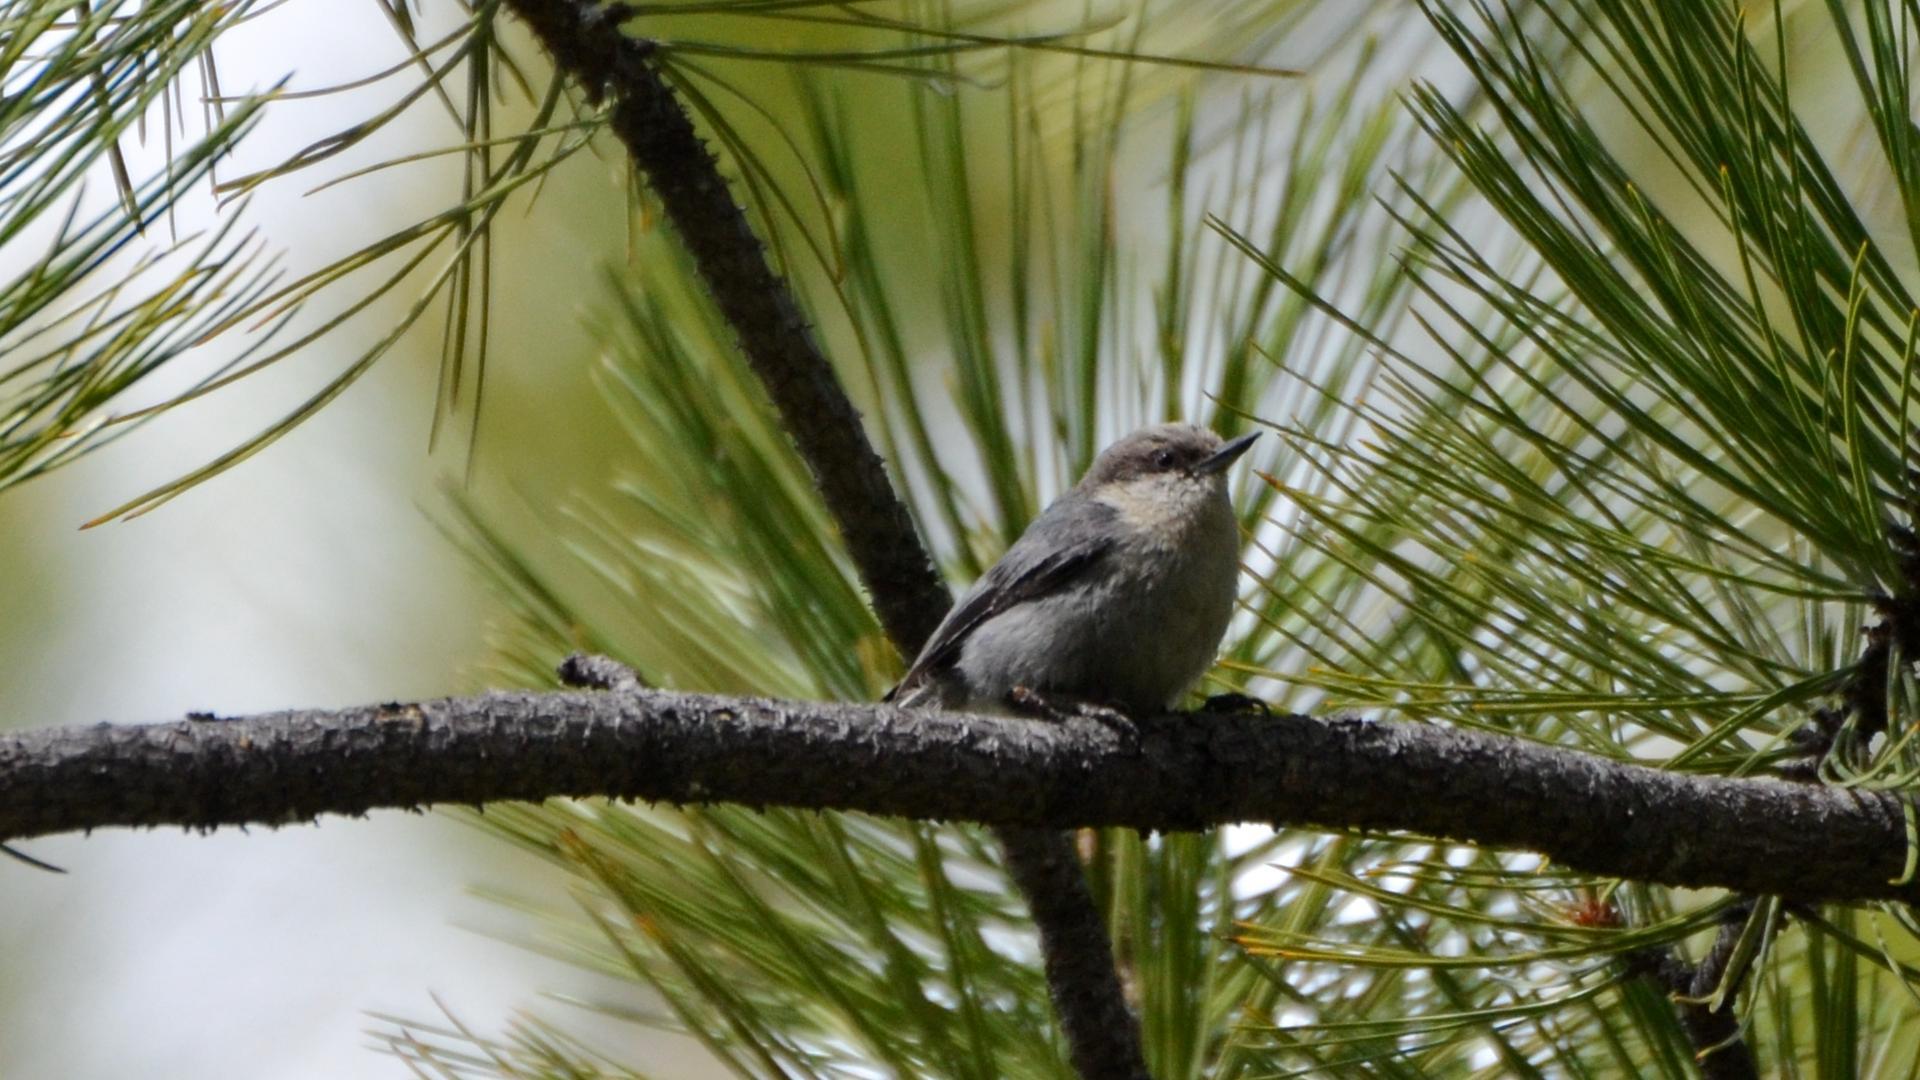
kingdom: Animalia
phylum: Chordata
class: Aves
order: Passeriformes
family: Sittidae
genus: Sitta
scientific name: Sitta pygmaea
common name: Pygmy nuthatch
